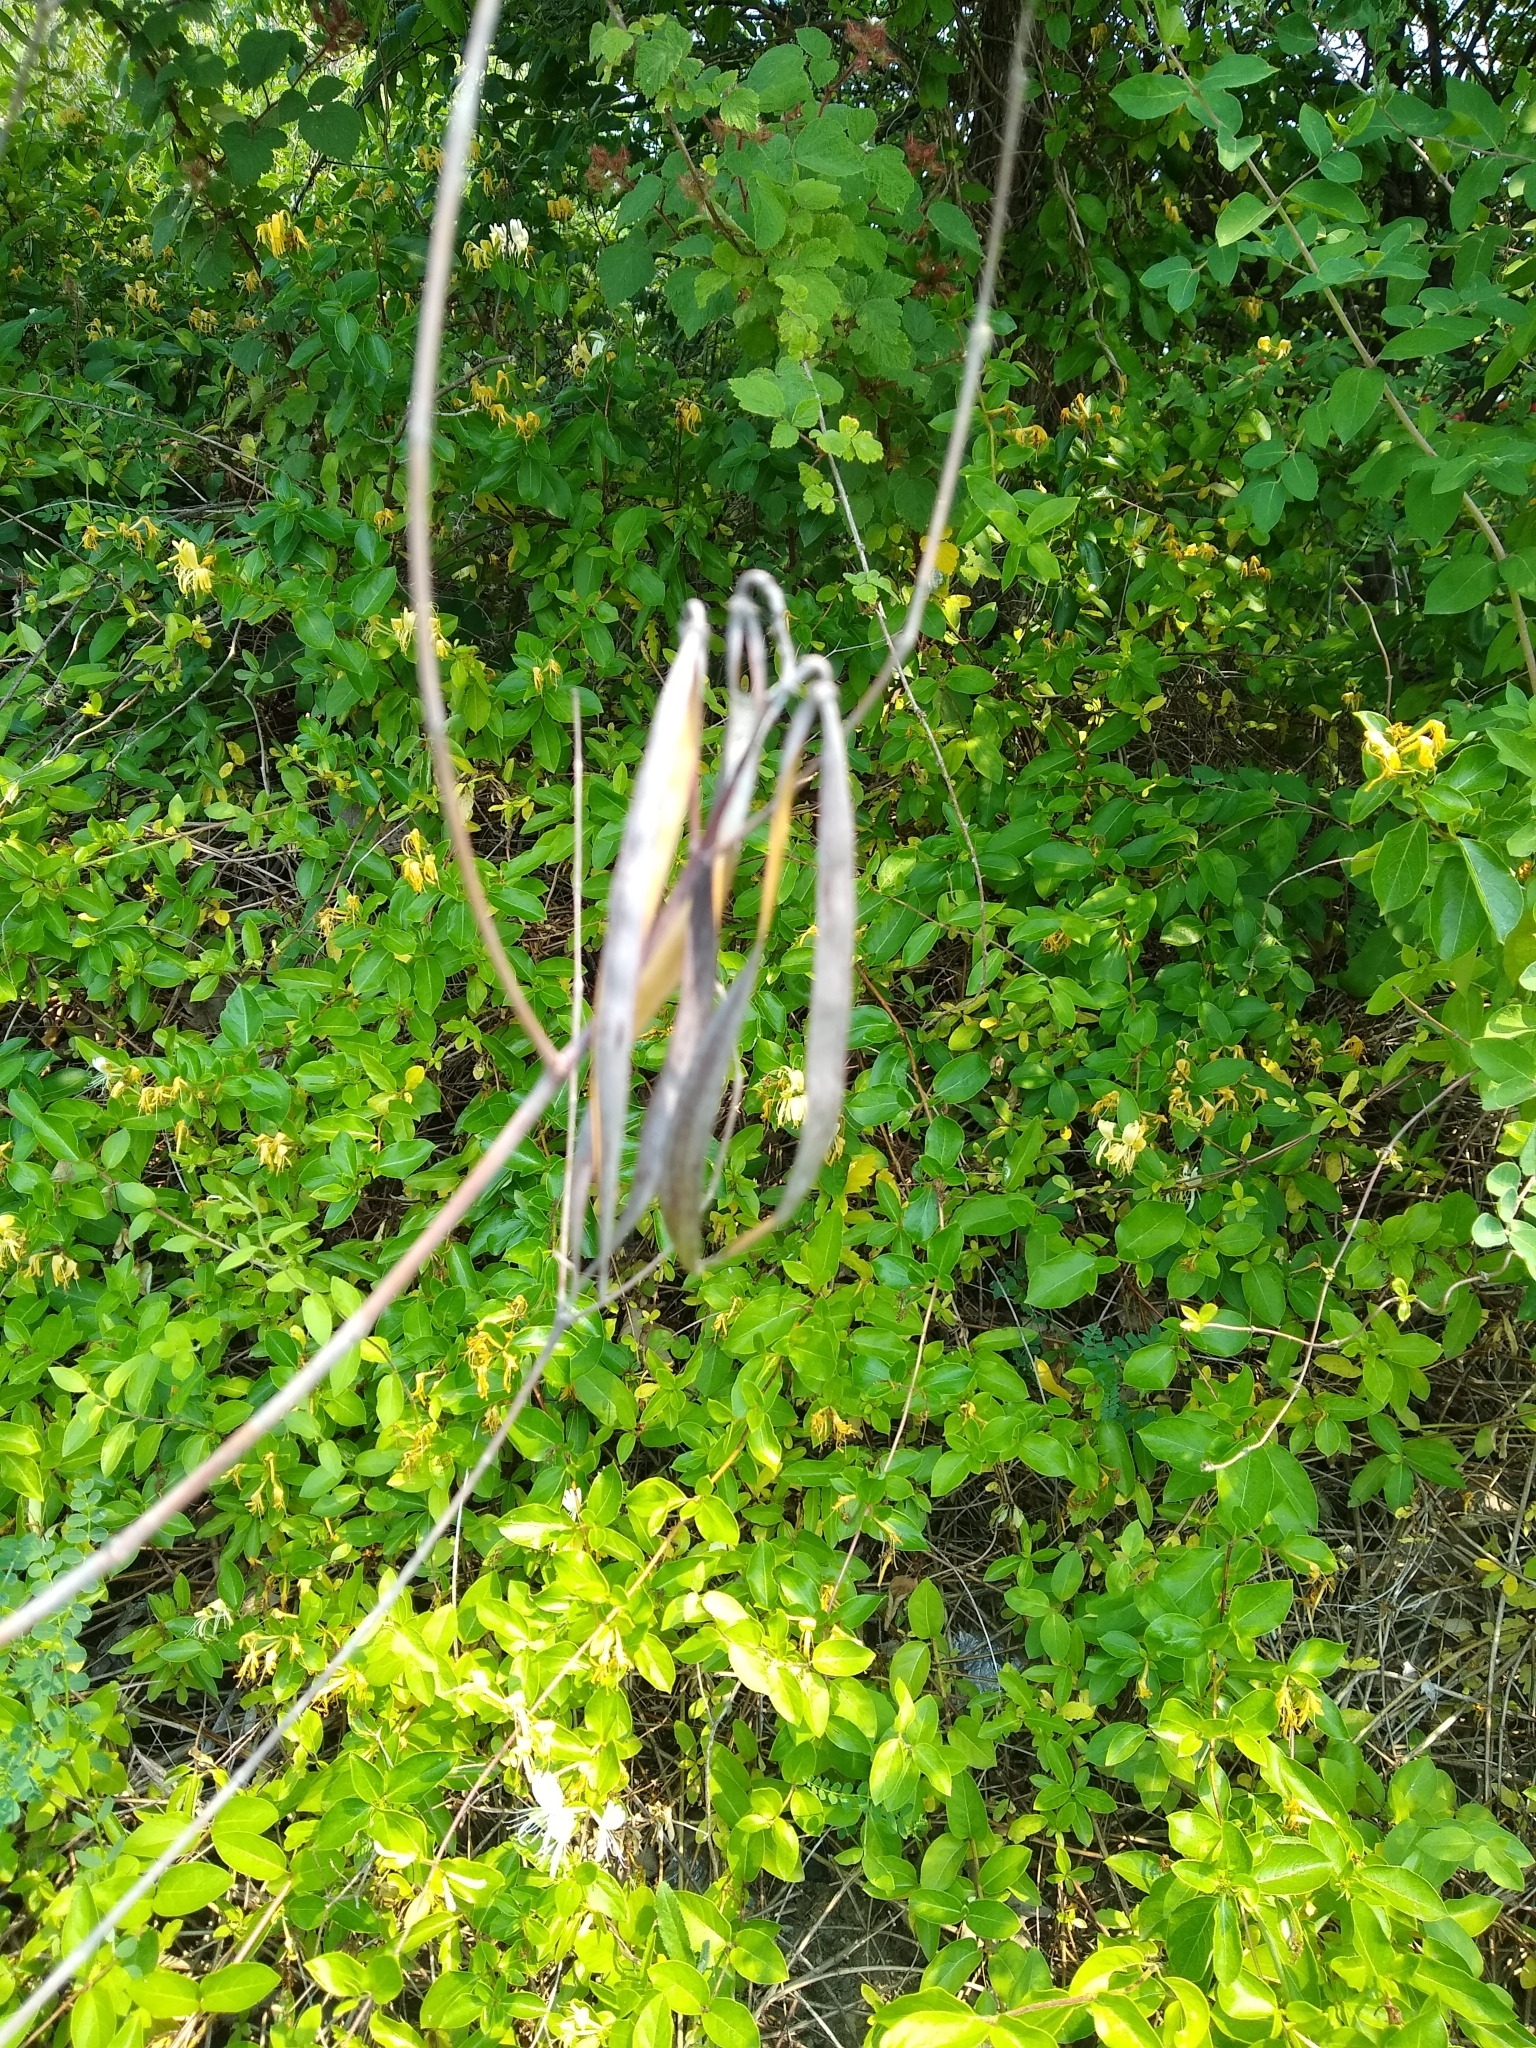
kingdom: Plantae
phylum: Tracheophyta
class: Magnoliopsida
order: Gentianales
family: Apocynaceae
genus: Apocynum
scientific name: Apocynum cannabinum
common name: Hemp dogbane
